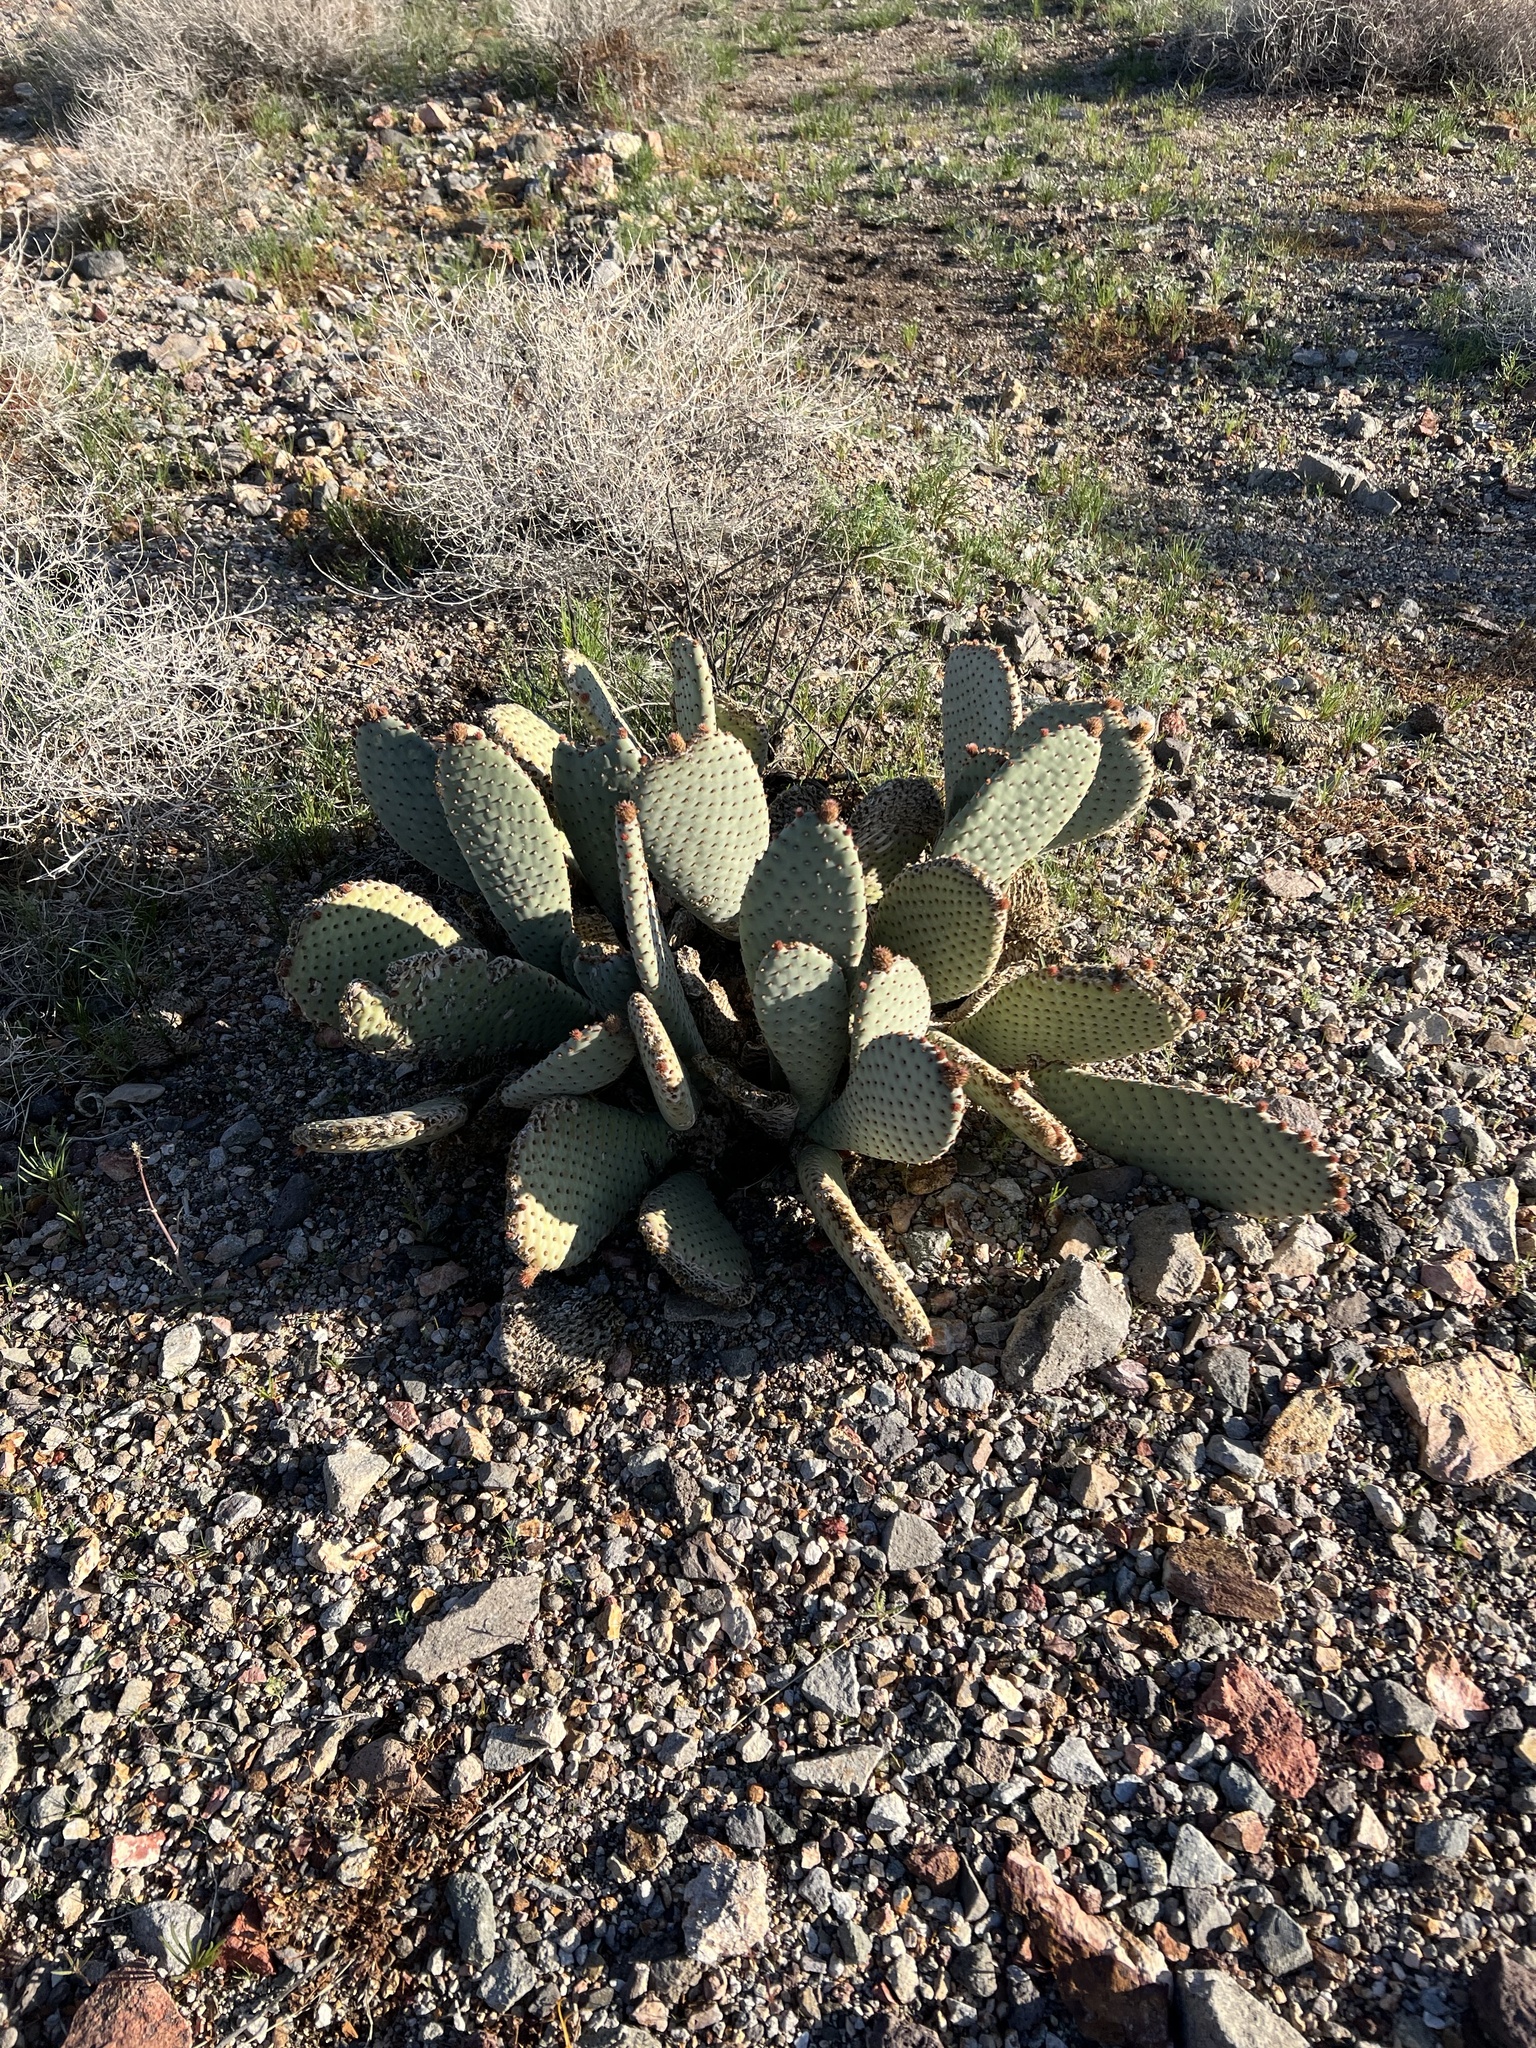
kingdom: Plantae
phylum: Tracheophyta
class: Magnoliopsida
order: Caryophyllales
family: Cactaceae
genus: Opuntia
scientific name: Opuntia basilaris
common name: Beavertail prickly-pear
